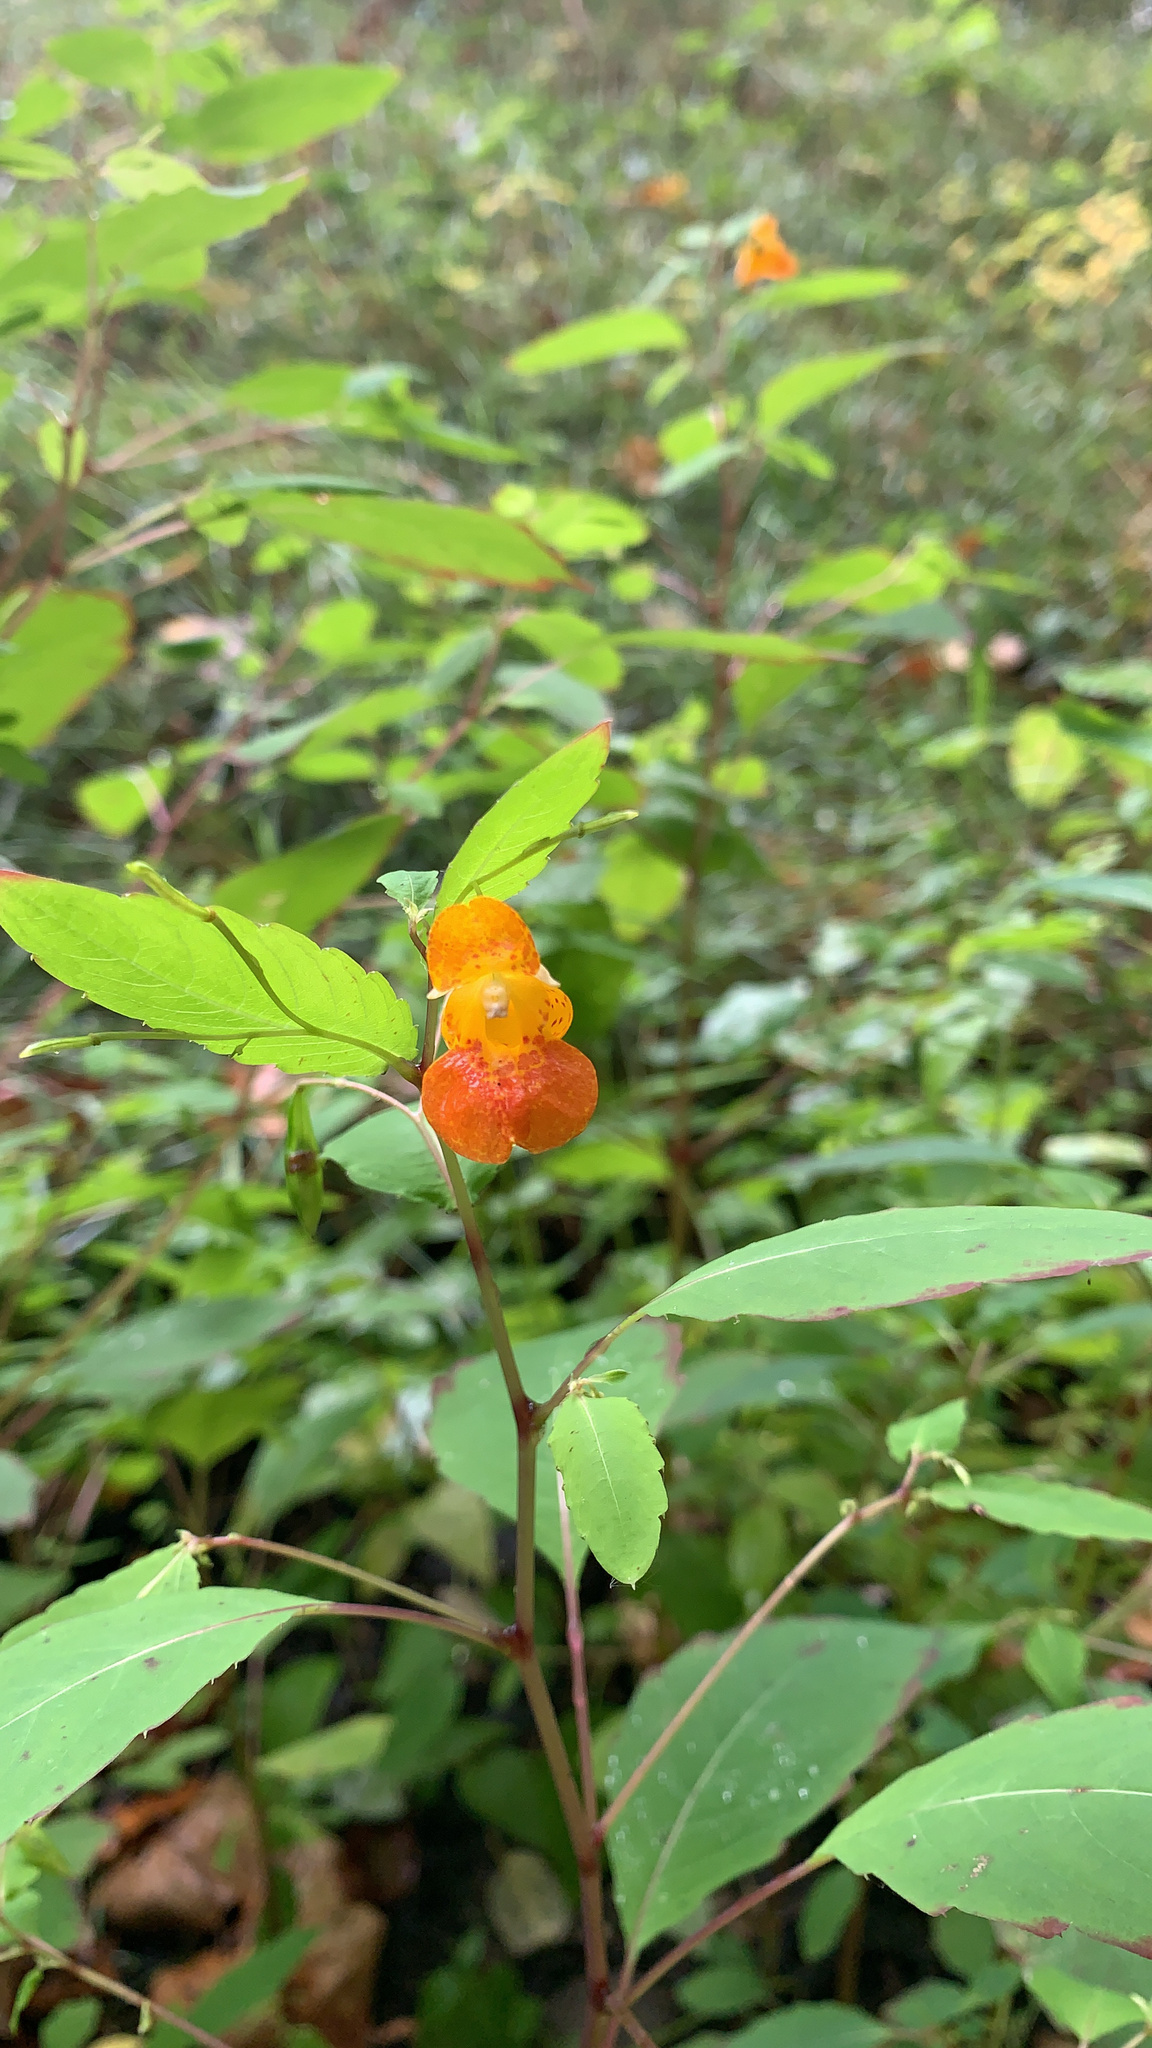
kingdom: Plantae
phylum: Tracheophyta
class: Magnoliopsida
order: Ericales
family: Balsaminaceae
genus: Impatiens
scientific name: Impatiens capensis
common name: Orange balsam
